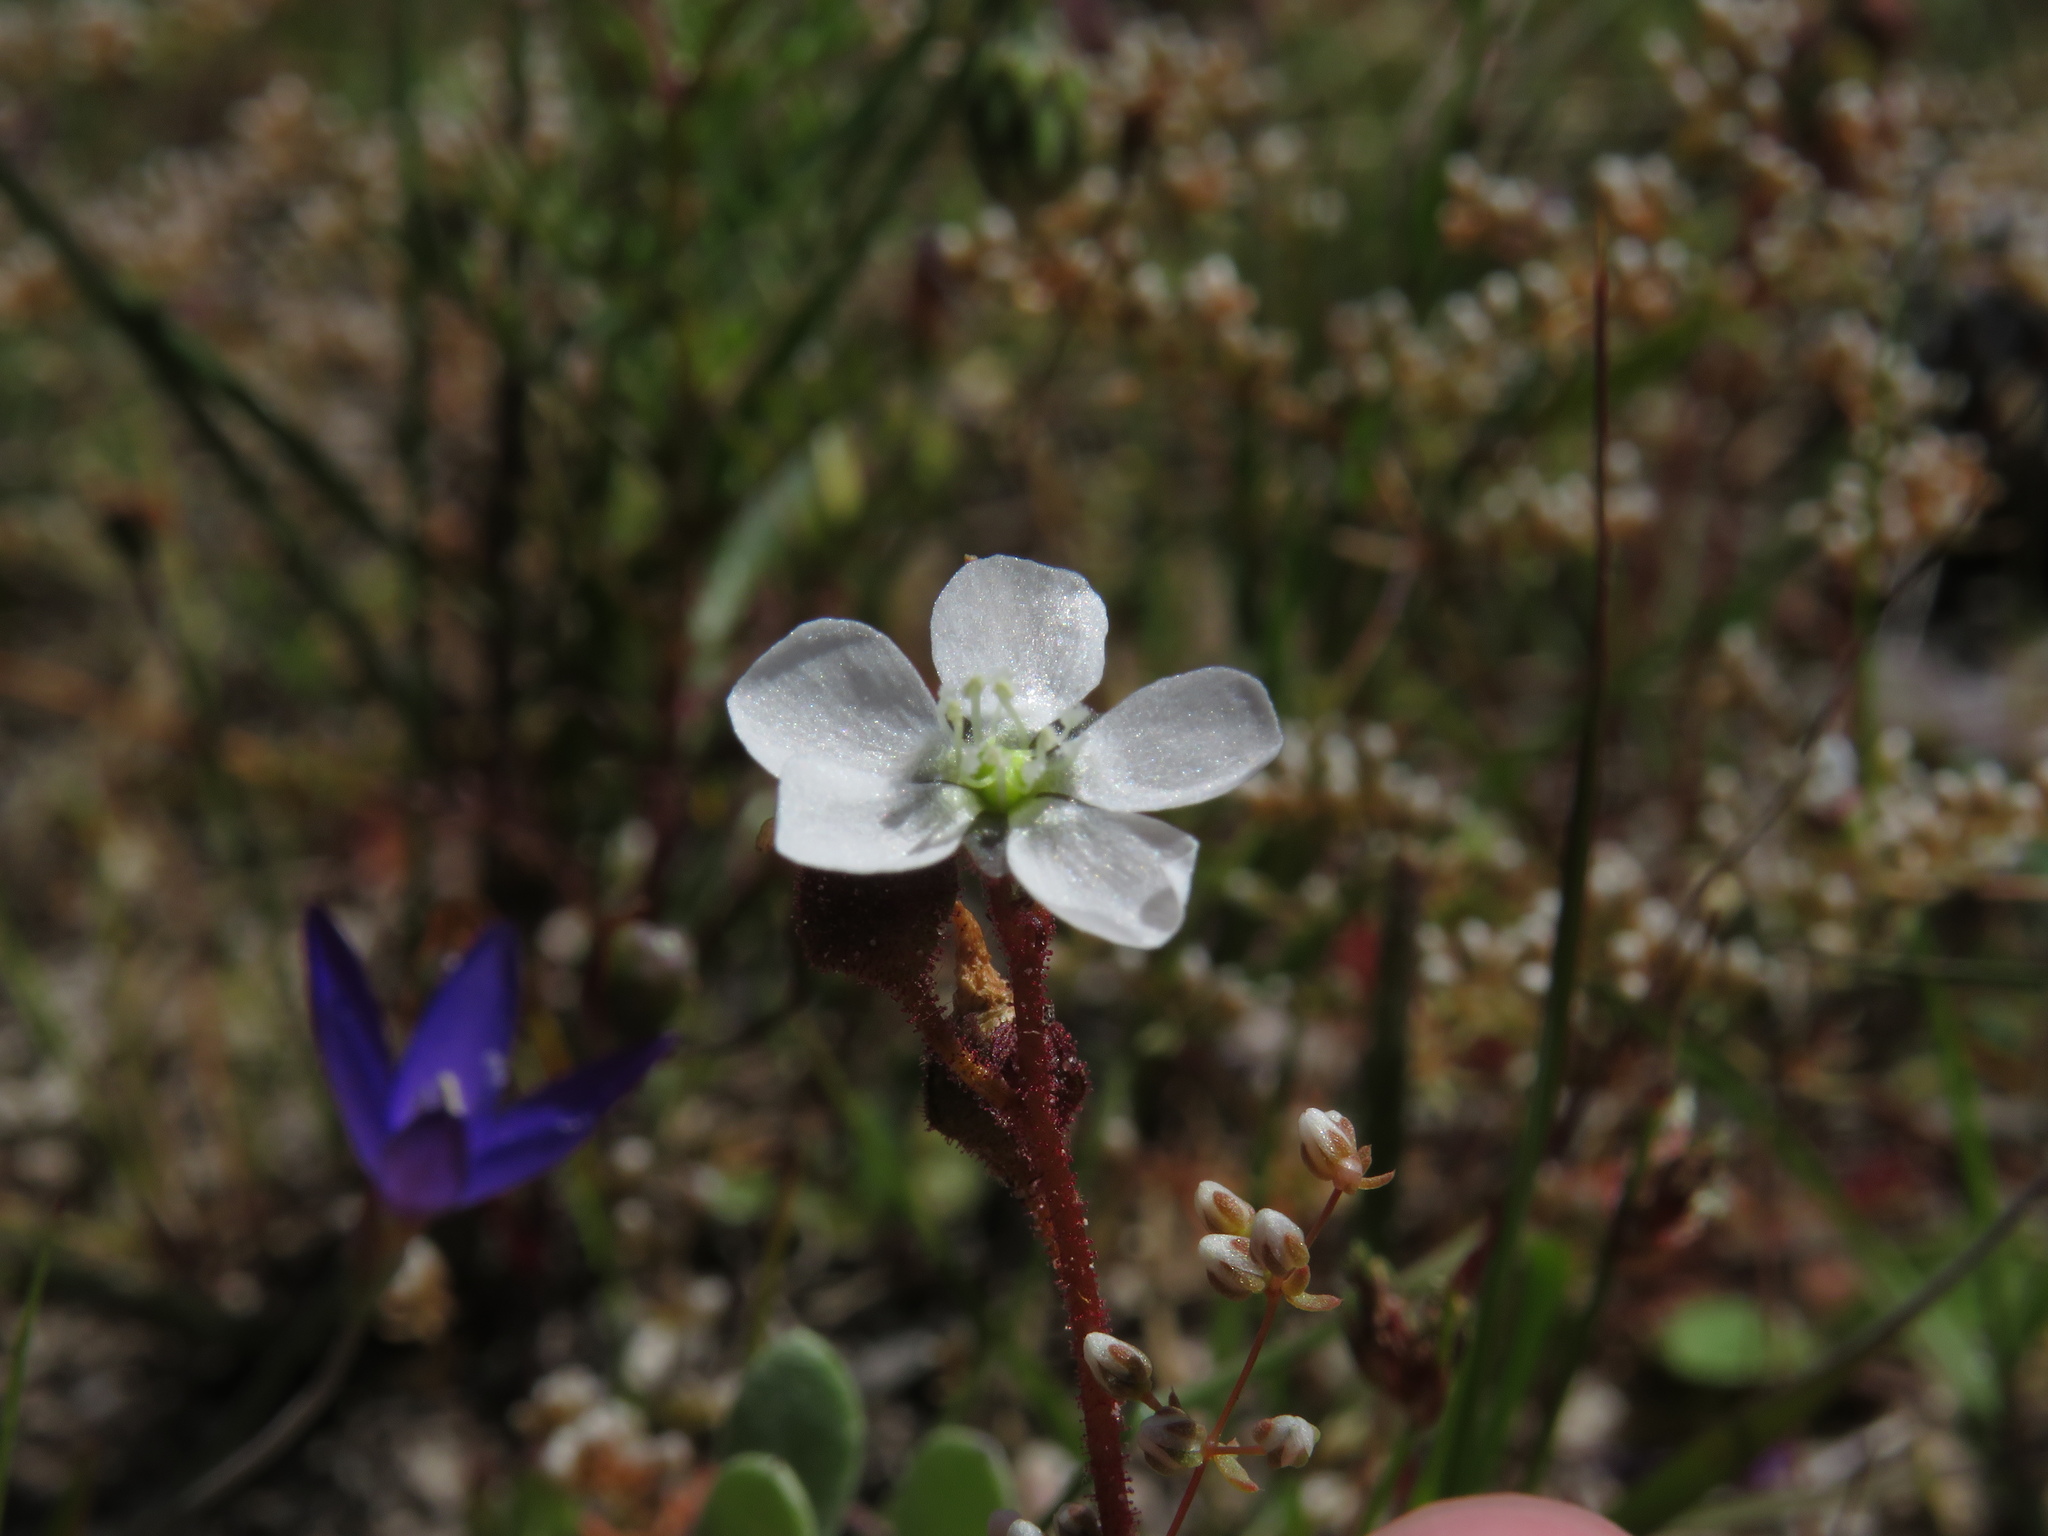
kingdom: Plantae
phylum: Tracheophyta
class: Magnoliopsida
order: Caryophyllales
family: Droseraceae
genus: Drosera
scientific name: Drosera trinervia
